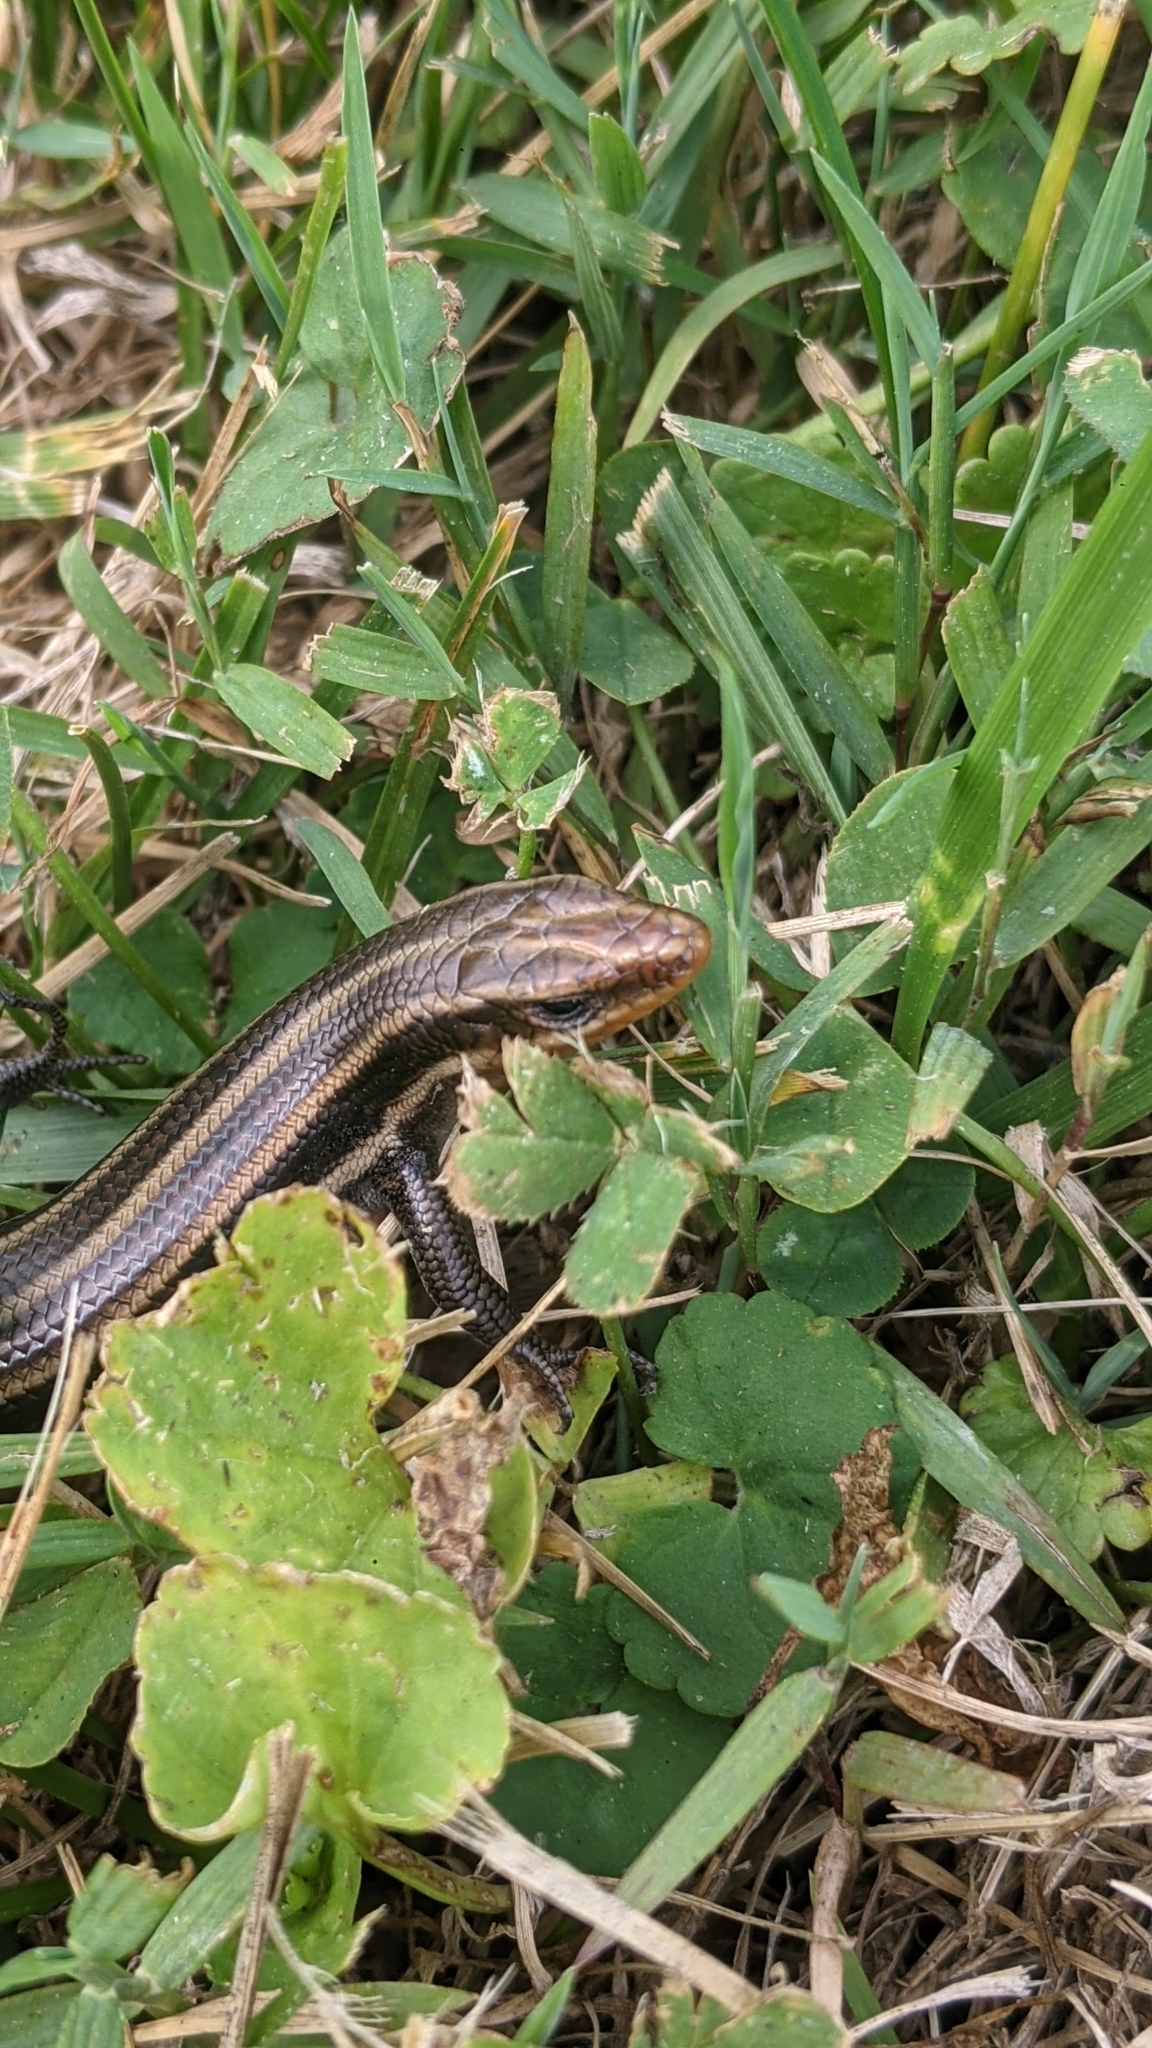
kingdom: Animalia
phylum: Chordata
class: Squamata
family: Scincidae
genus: Plestiodon
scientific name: Plestiodon fasciatus
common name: Five-lined skink
